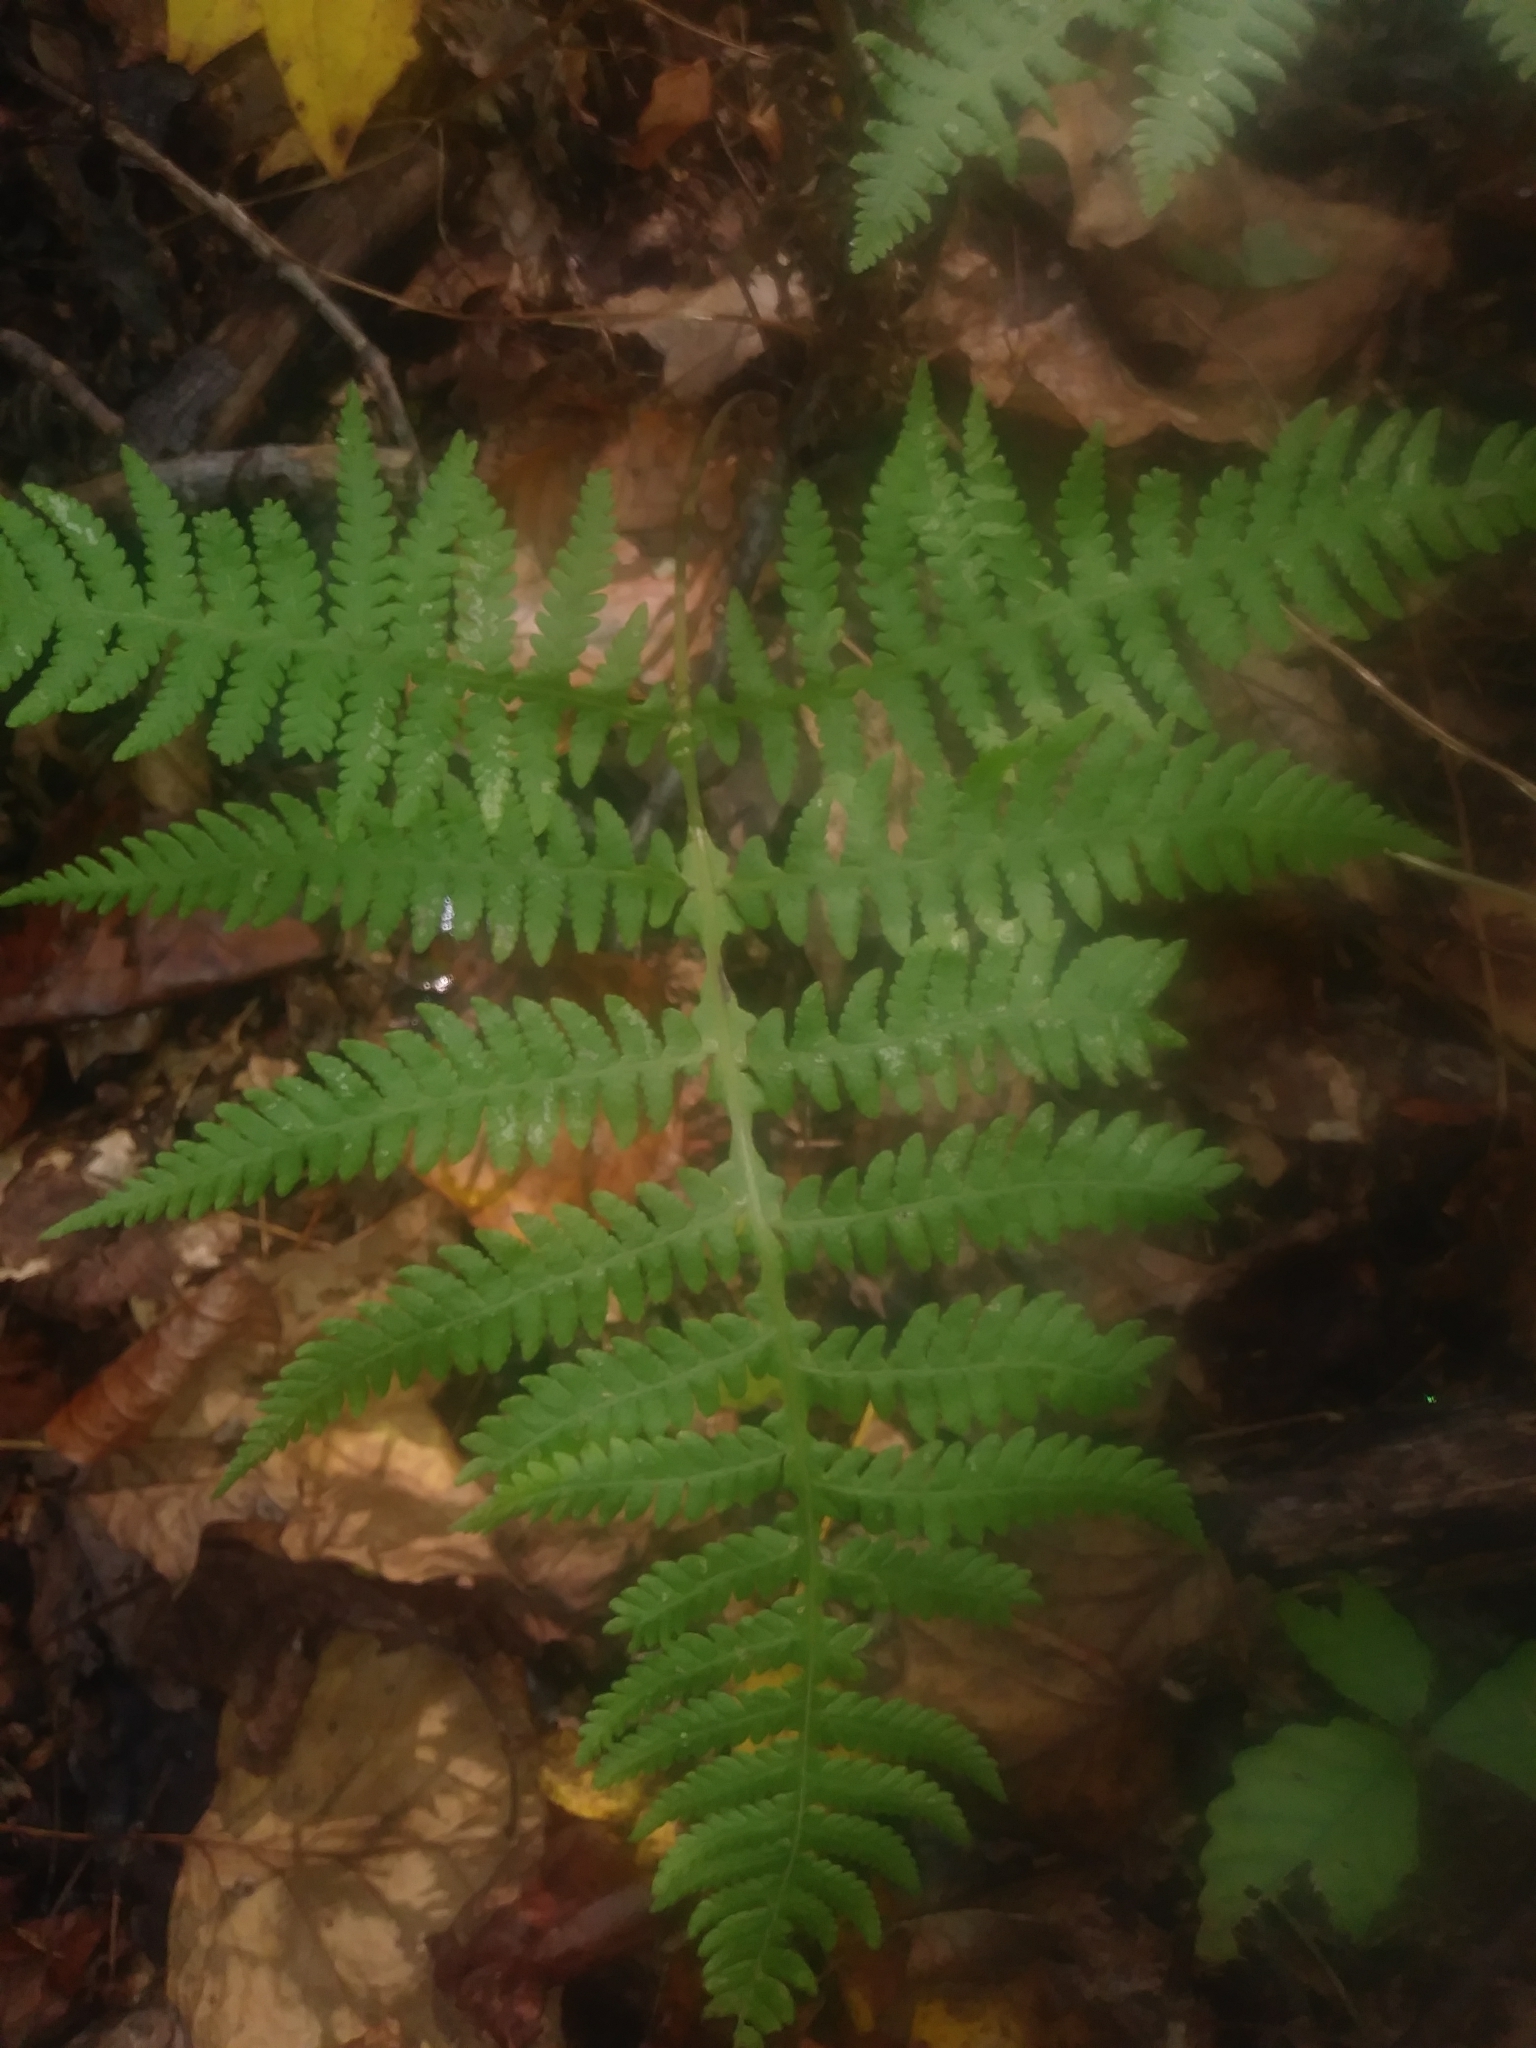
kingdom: Plantae
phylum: Tracheophyta
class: Polypodiopsida
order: Polypodiales
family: Thelypteridaceae
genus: Phegopteris
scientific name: Phegopteris hexagonoptera
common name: Broad beech fern
